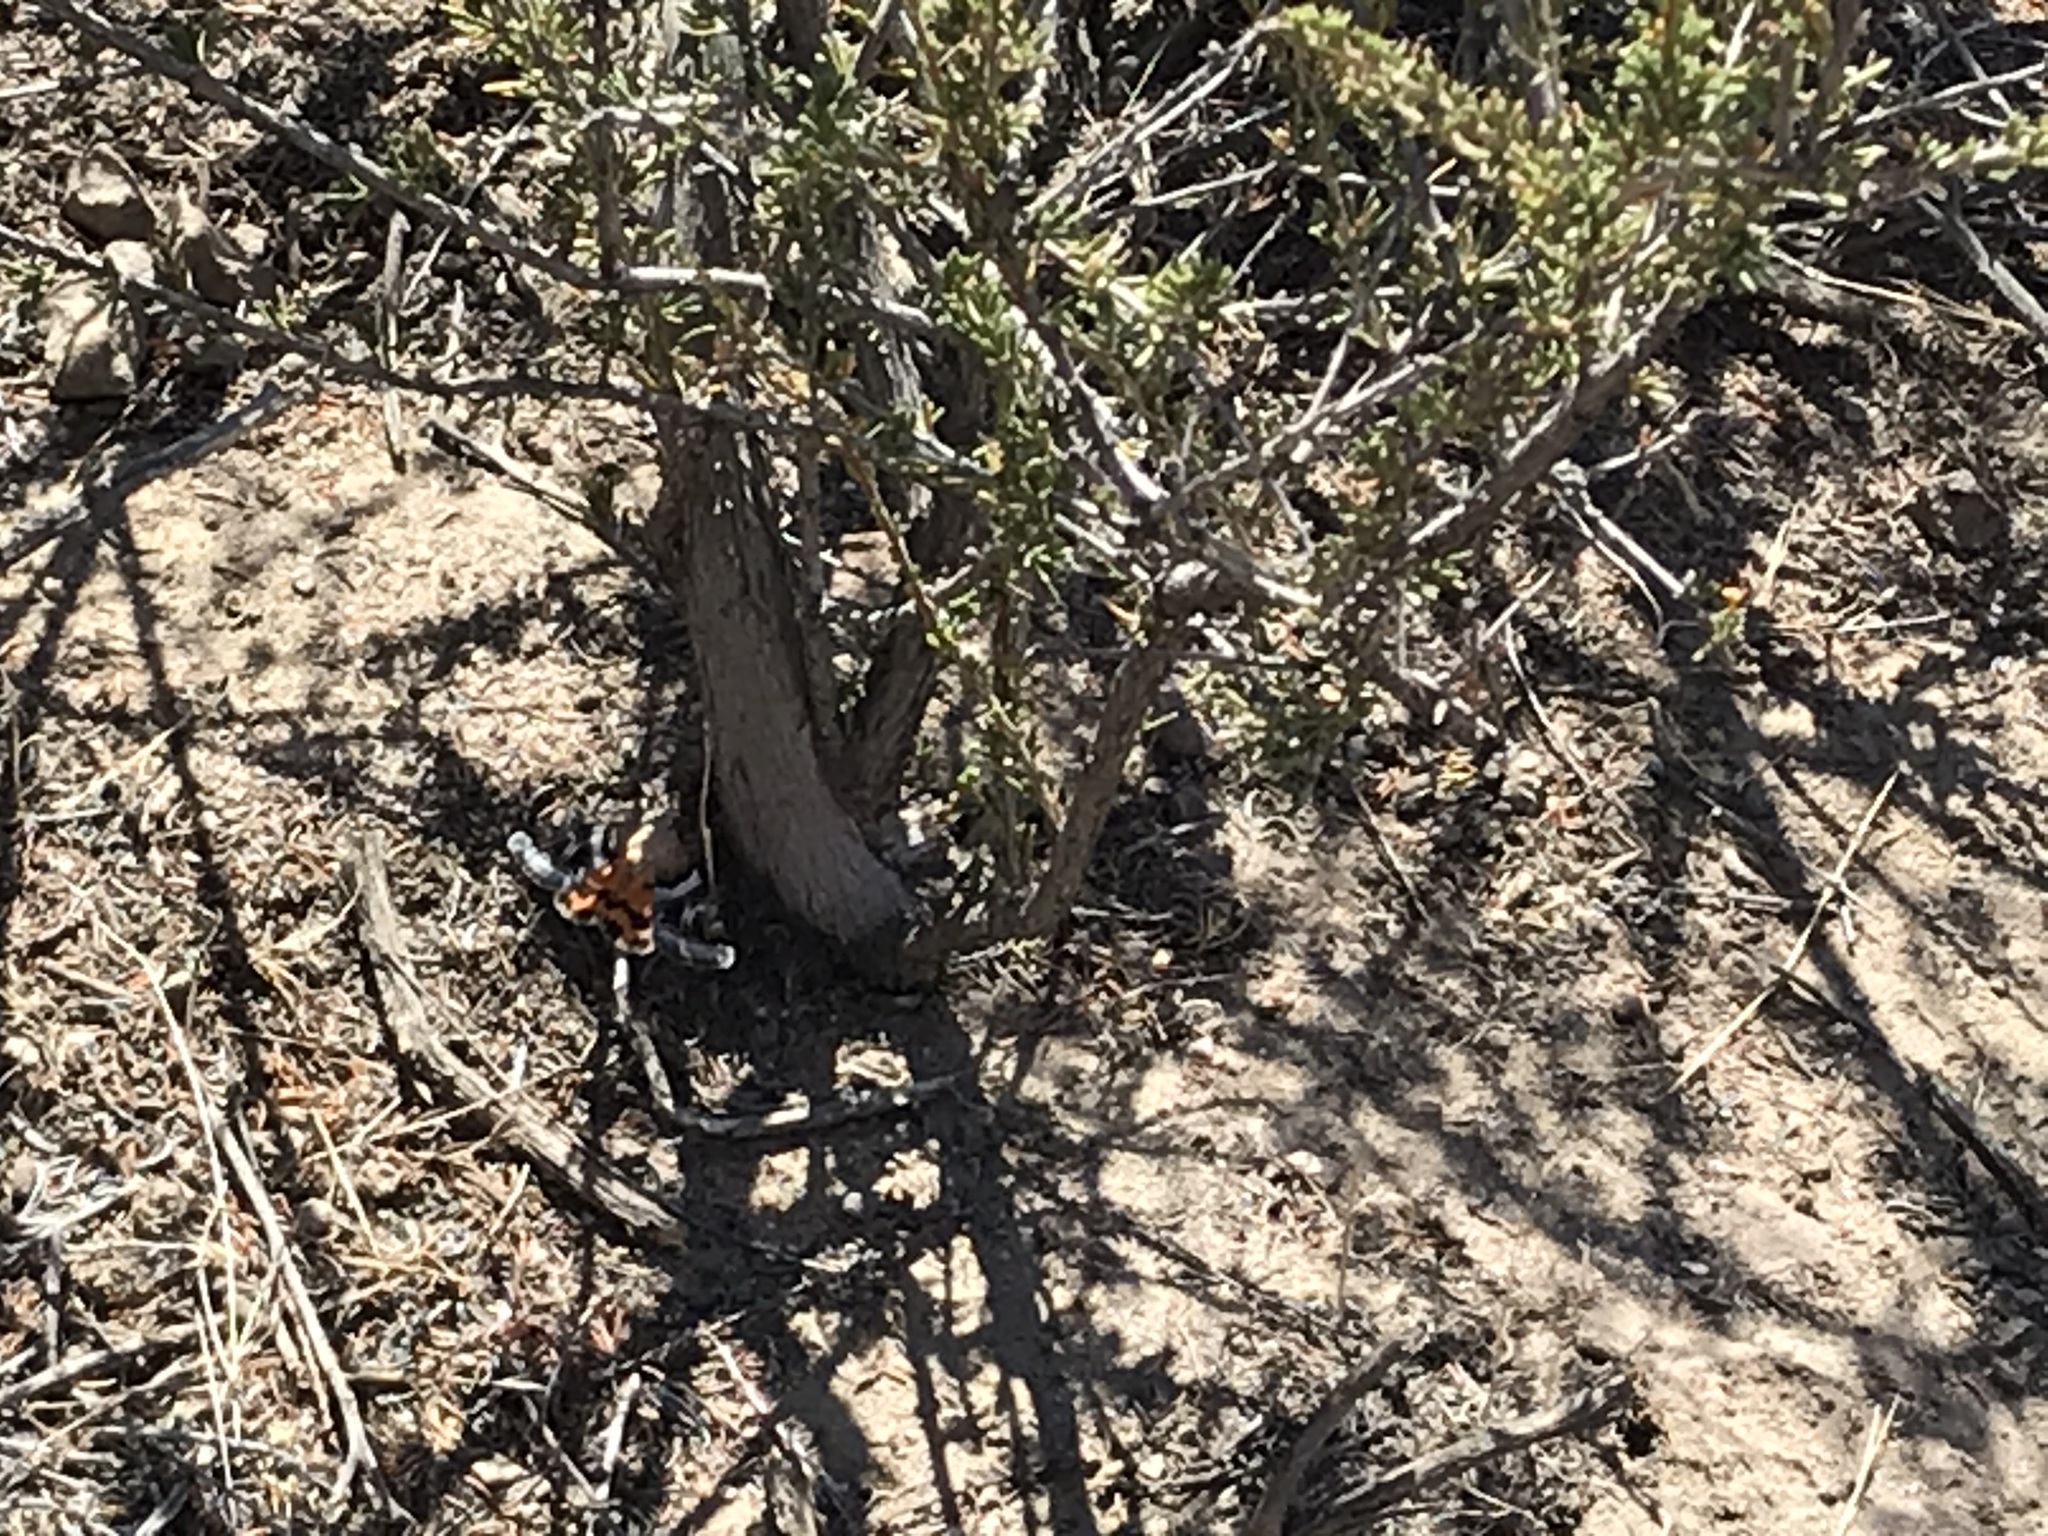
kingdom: Animalia
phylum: Arthropoda
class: Insecta
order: Lepidoptera
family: Erebidae
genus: Drasteria
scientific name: Drasteria howlandii
